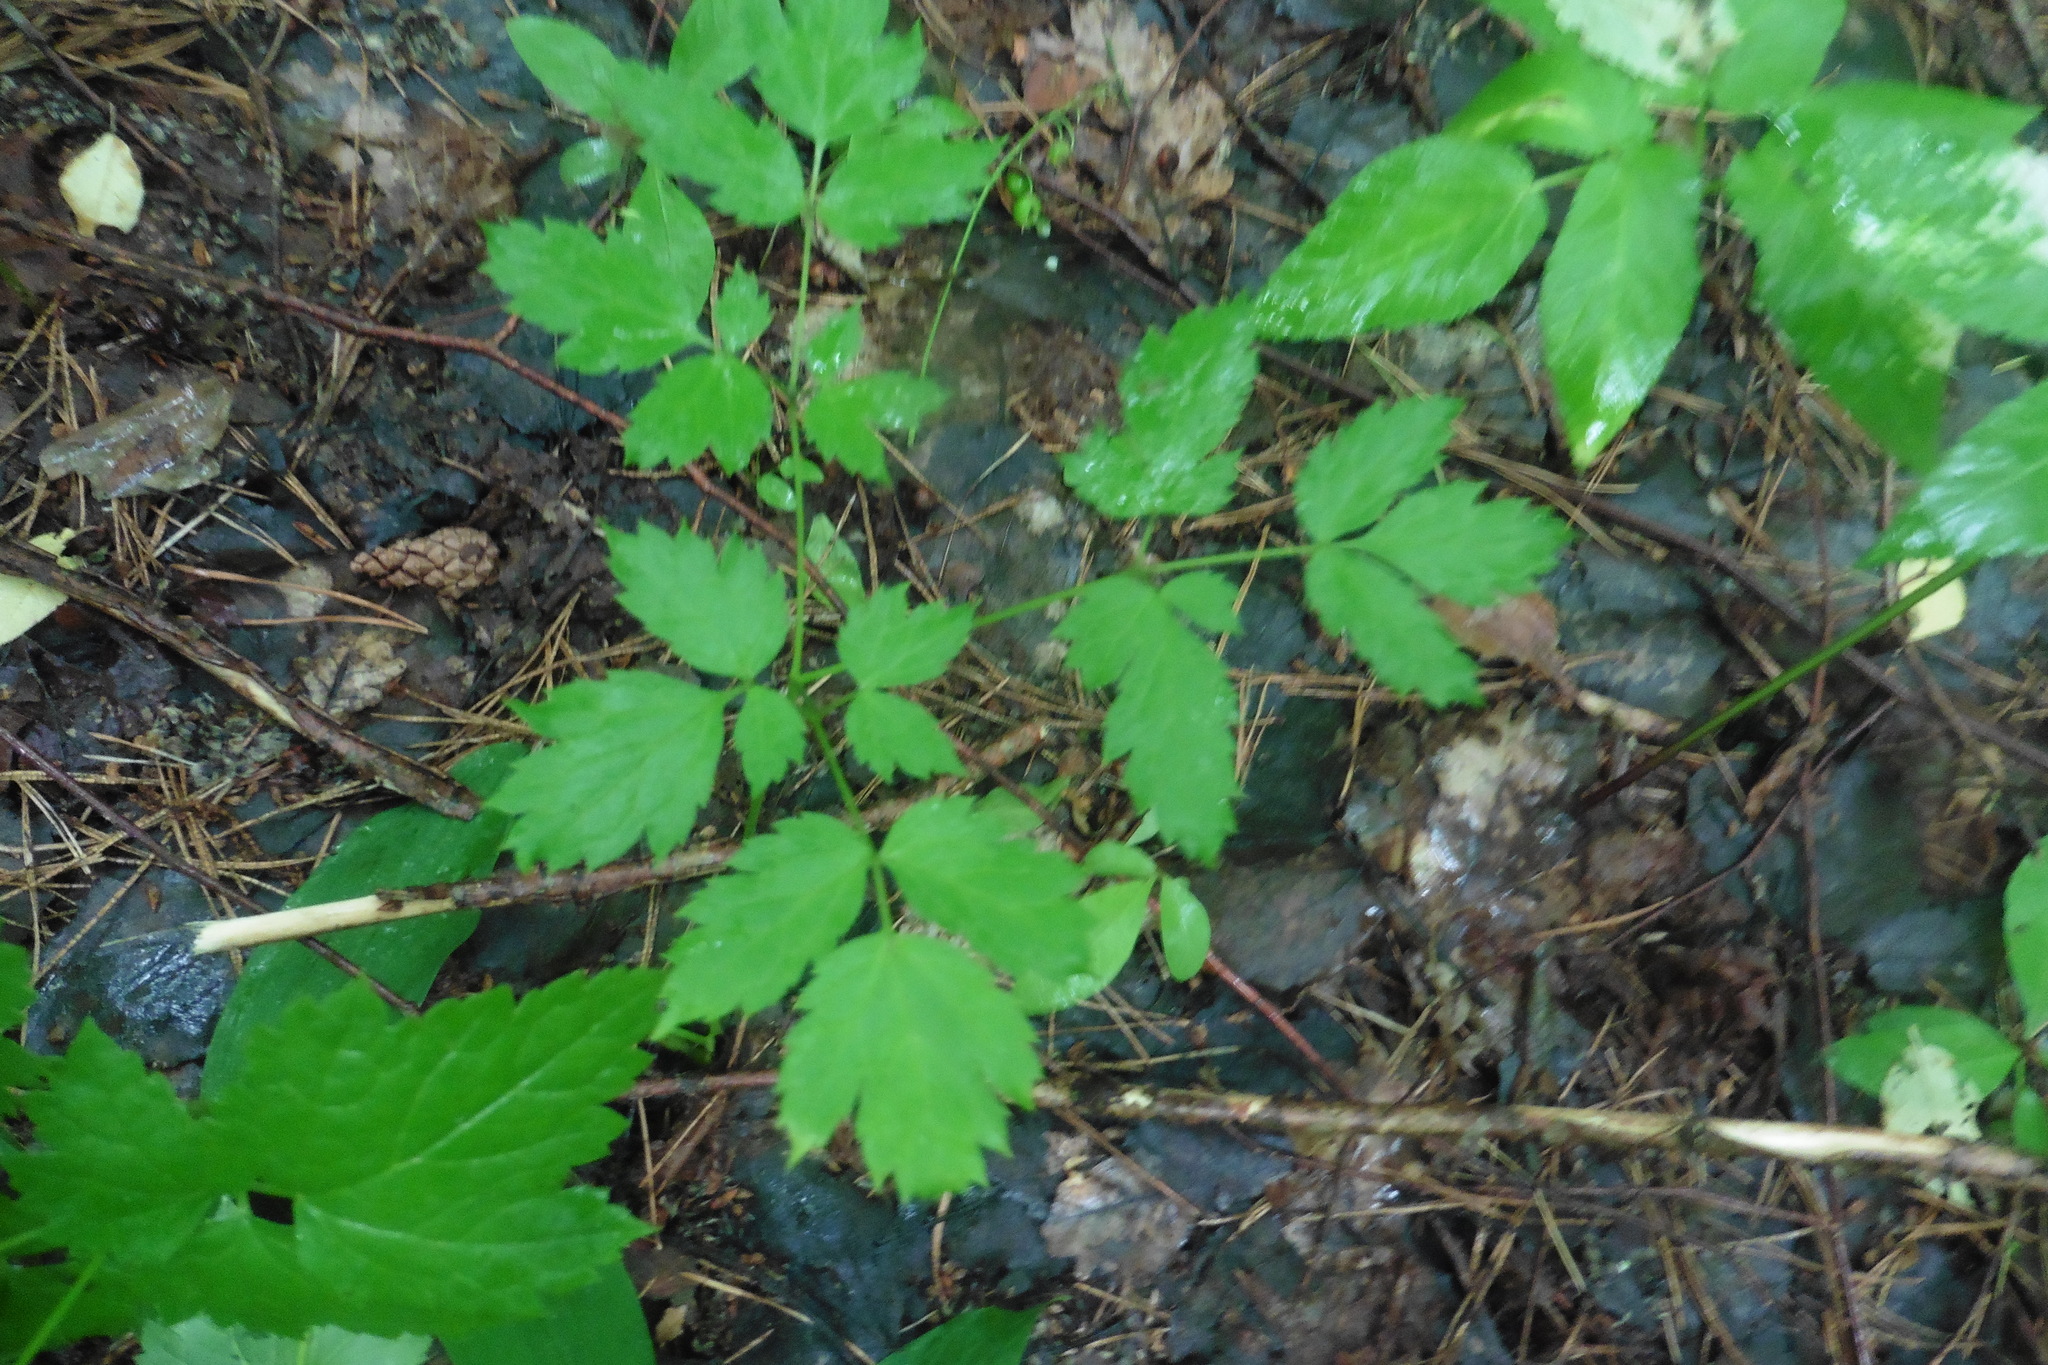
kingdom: Plantae
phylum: Tracheophyta
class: Magnoliopsida
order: Ranunculales
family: Ranunculaceae
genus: Actaea
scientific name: Actaea spicata
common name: Baneberry
